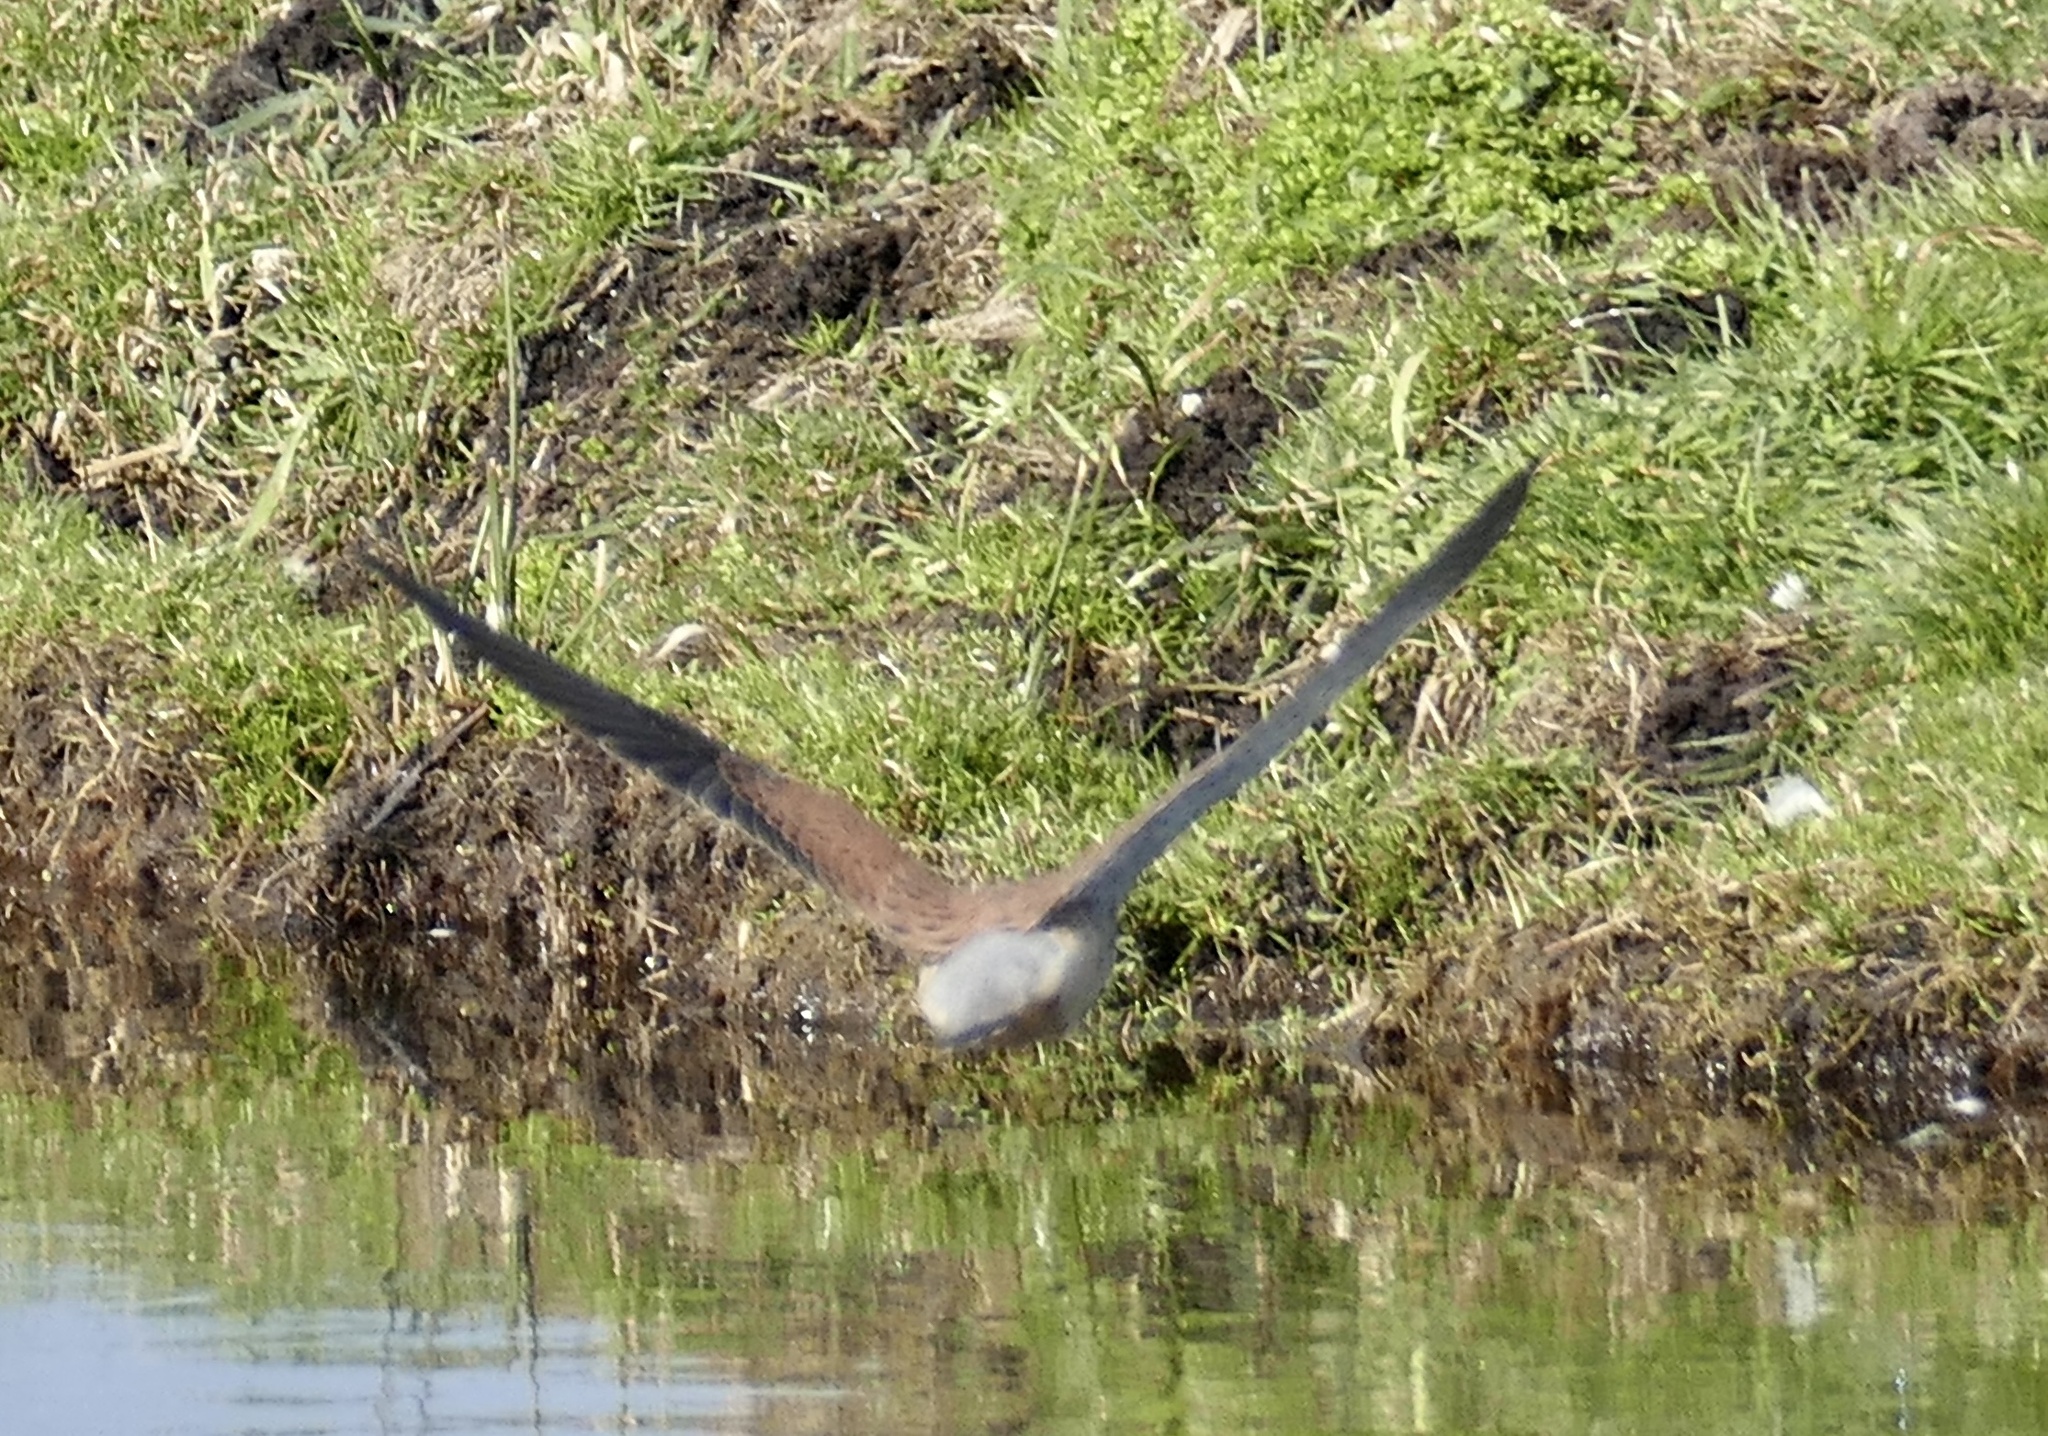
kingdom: Animalia
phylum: Chordata
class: Aves
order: Falconiformes
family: Falconidae
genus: Falco
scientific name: Falco tinnunculus
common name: Common kestrel
